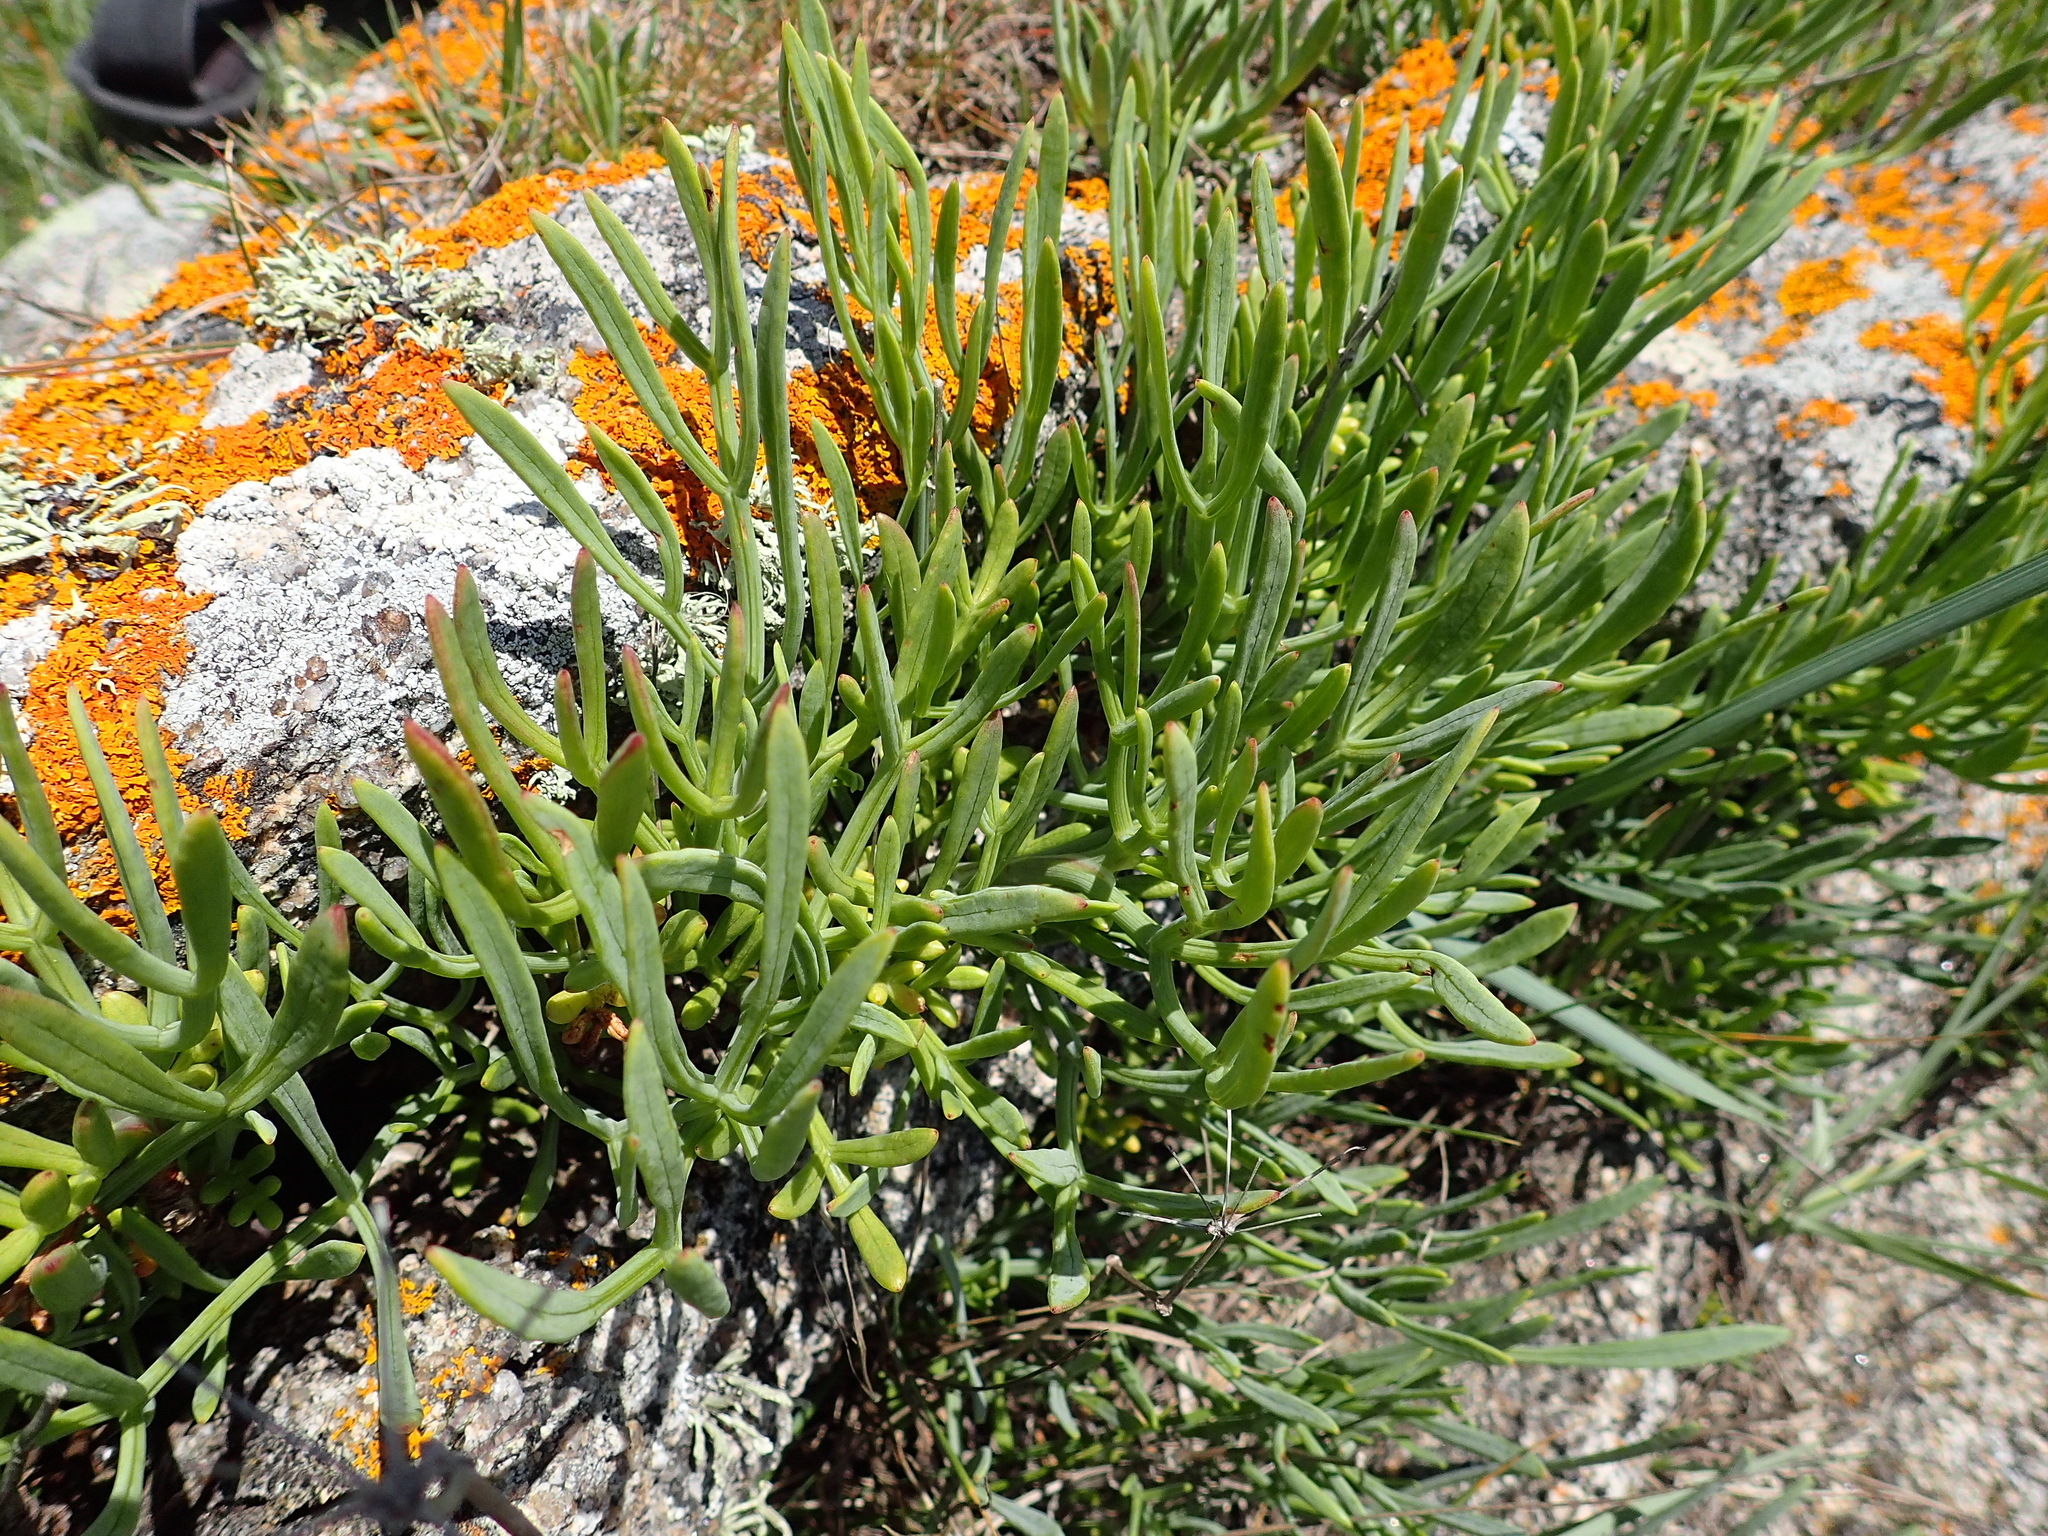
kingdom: Plantae
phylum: Tracheophyta
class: Magnoliopsida
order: Apiales
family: Apiaceae
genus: Crithmum
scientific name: Crithmum maritimum
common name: Rock samphire
